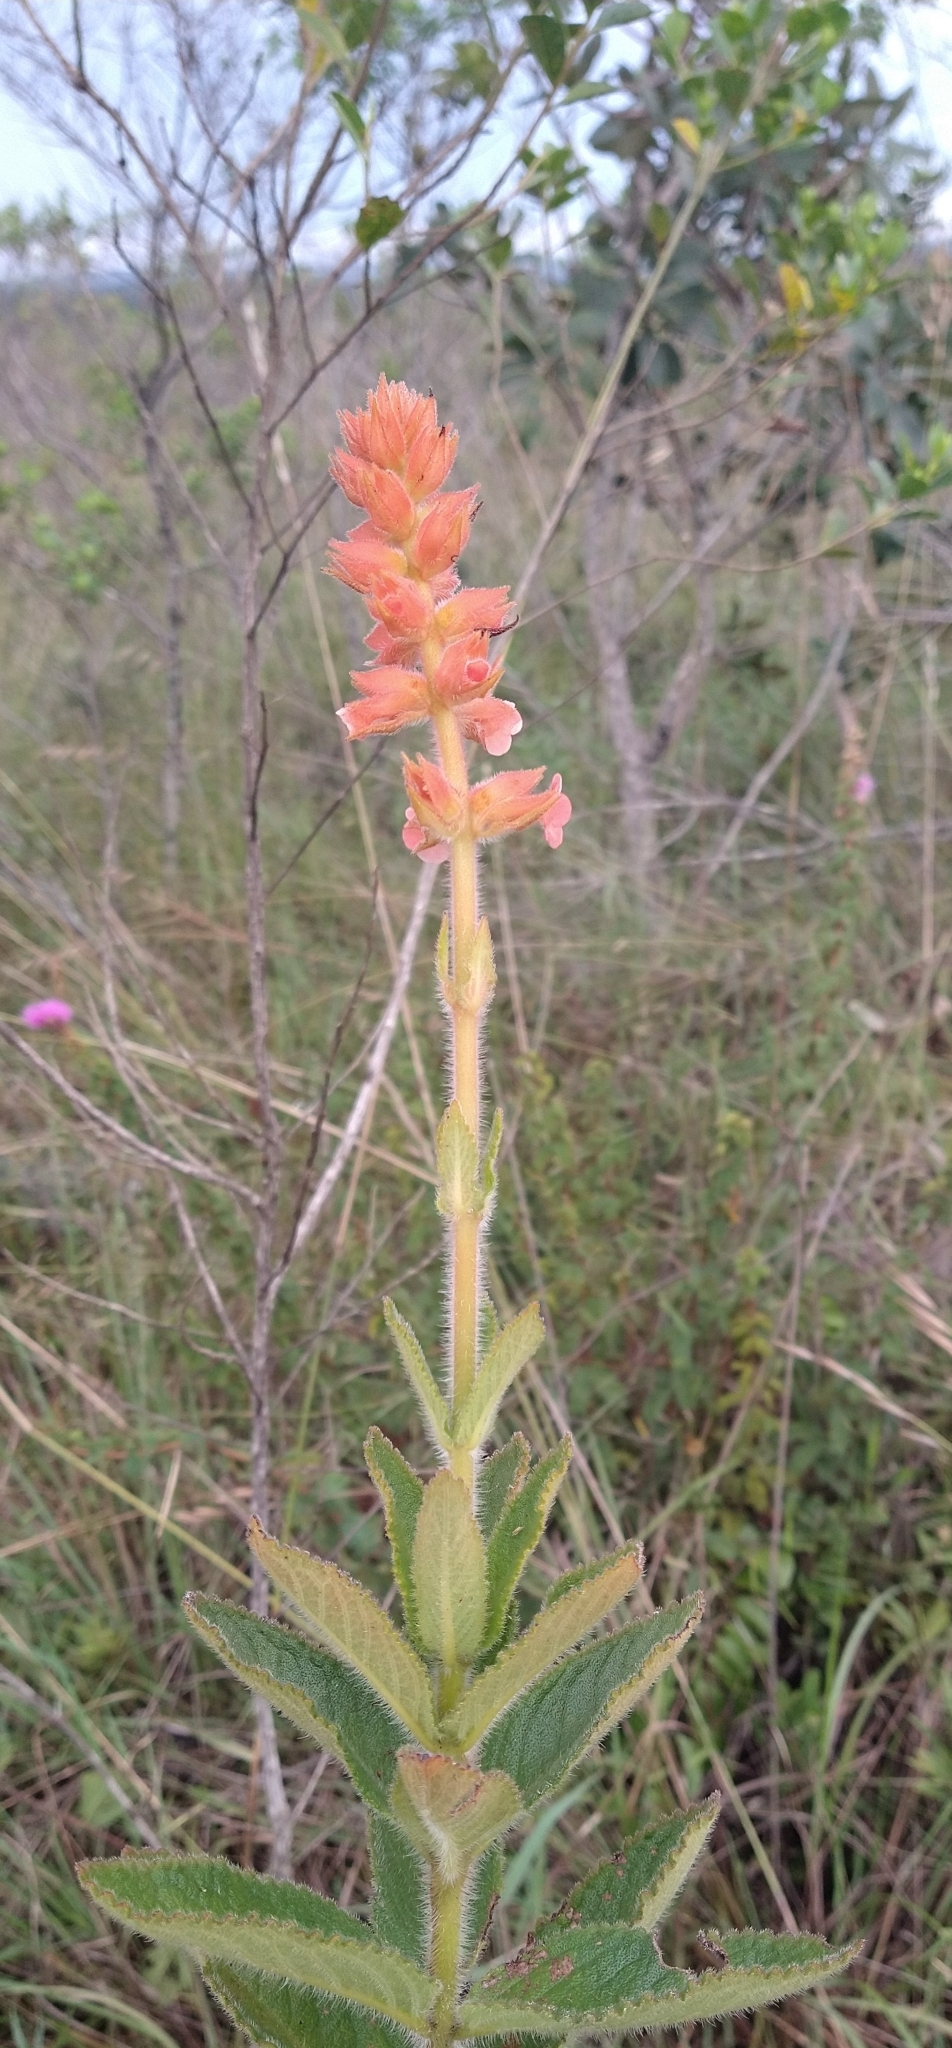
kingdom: Plantae
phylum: Tracheophyta
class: Magnoliopsida
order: Lamiales
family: Gesneriaceae
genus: Sinningia
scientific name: Sinningia allagophylla
